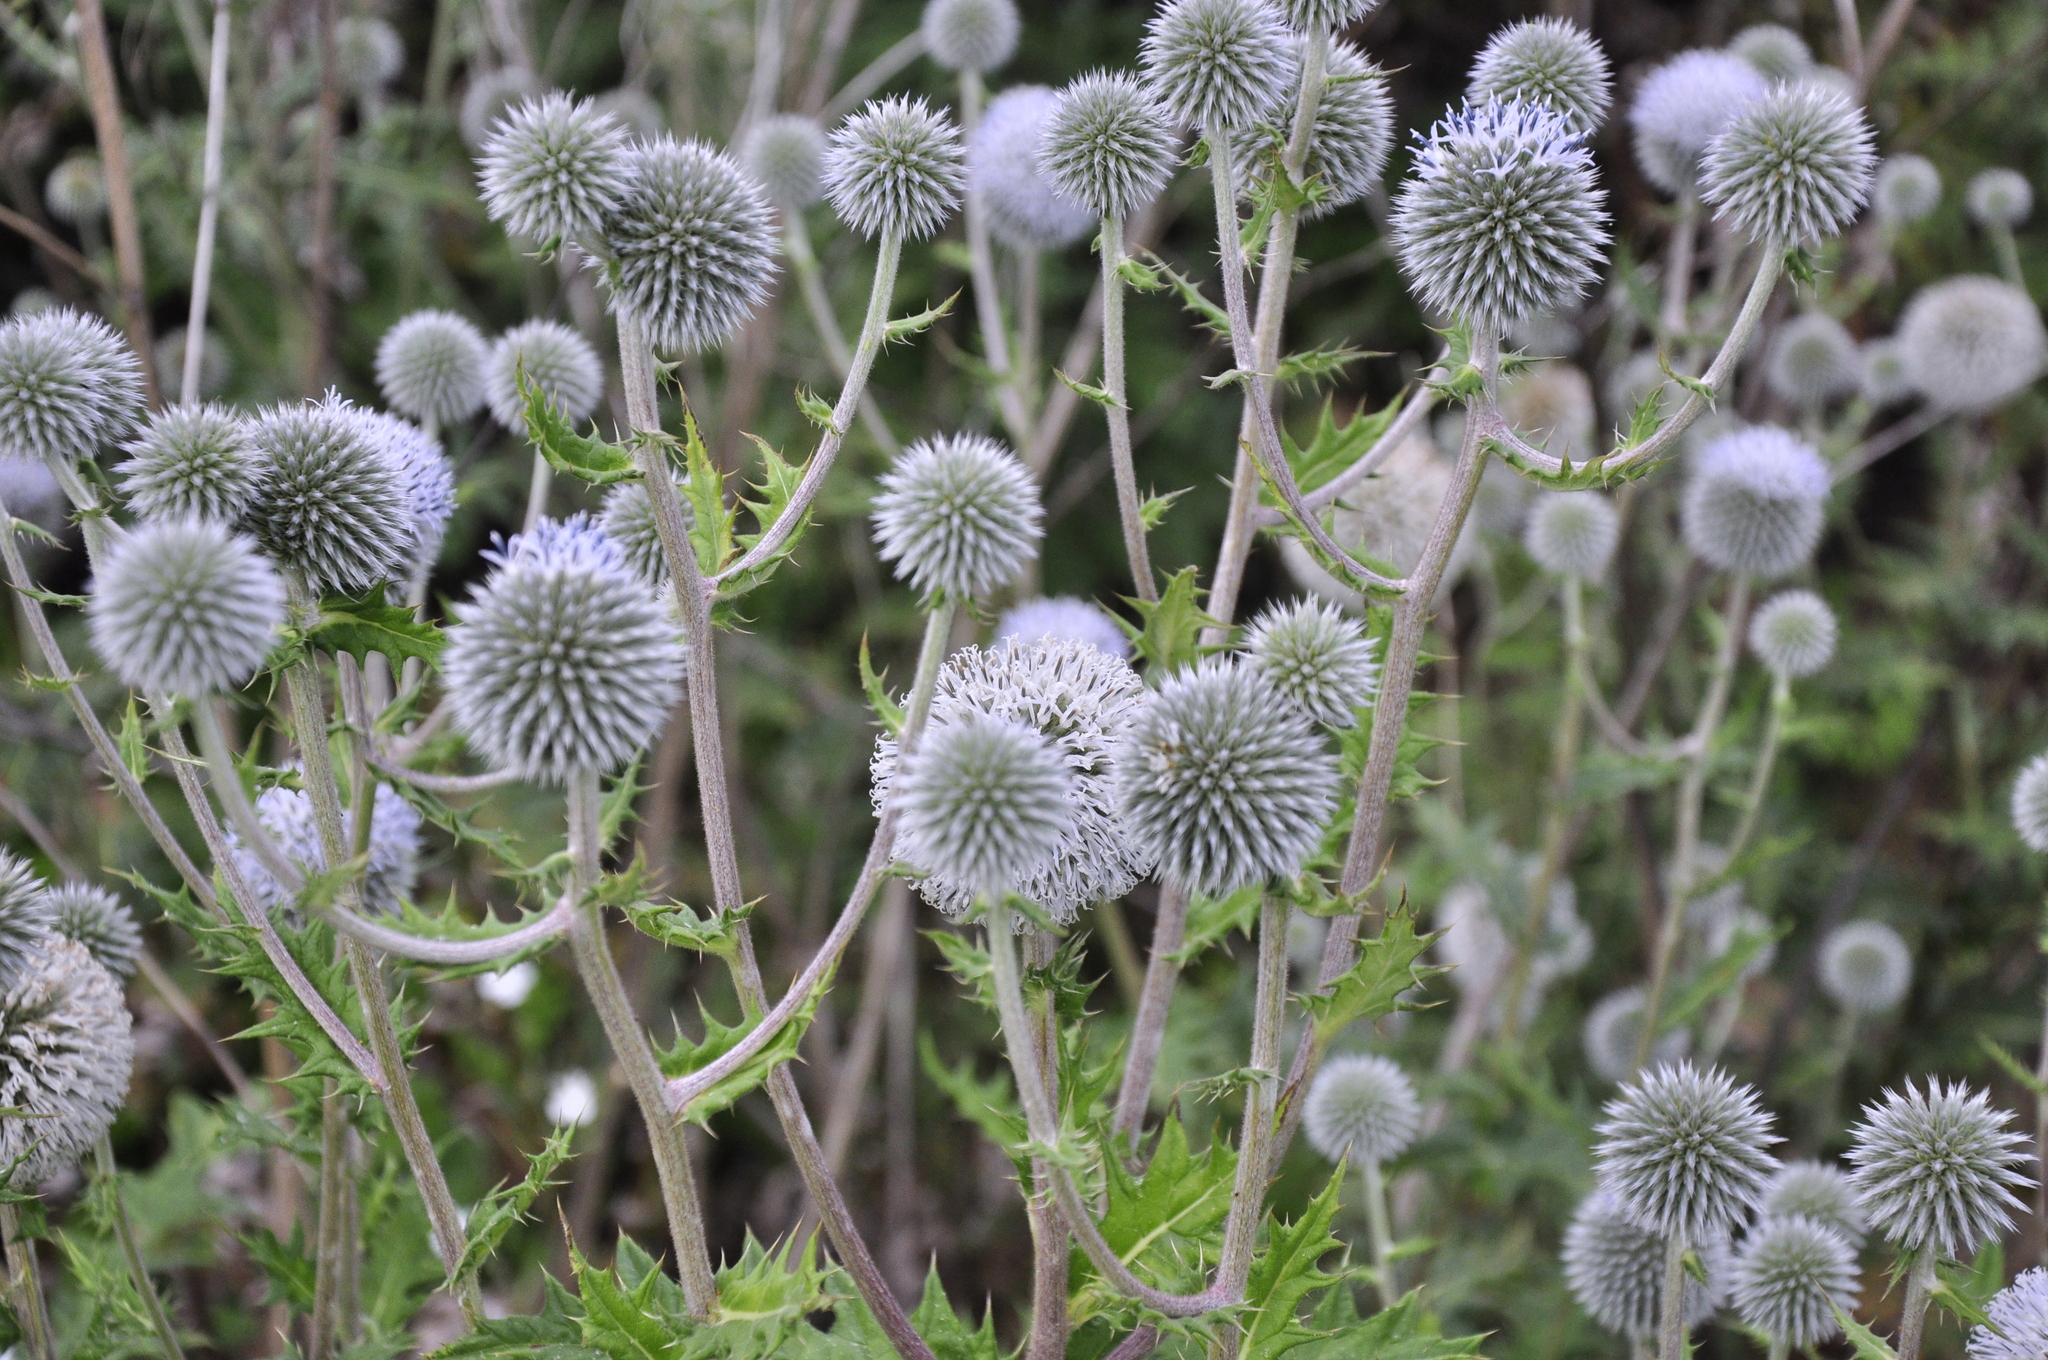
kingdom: Plantae
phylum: Tracheophyta
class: Magnoliopsida
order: Asterales
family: Asteraceae
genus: Echinops
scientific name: Echinops sphaerocephalus
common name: Glandular globe-thistle
